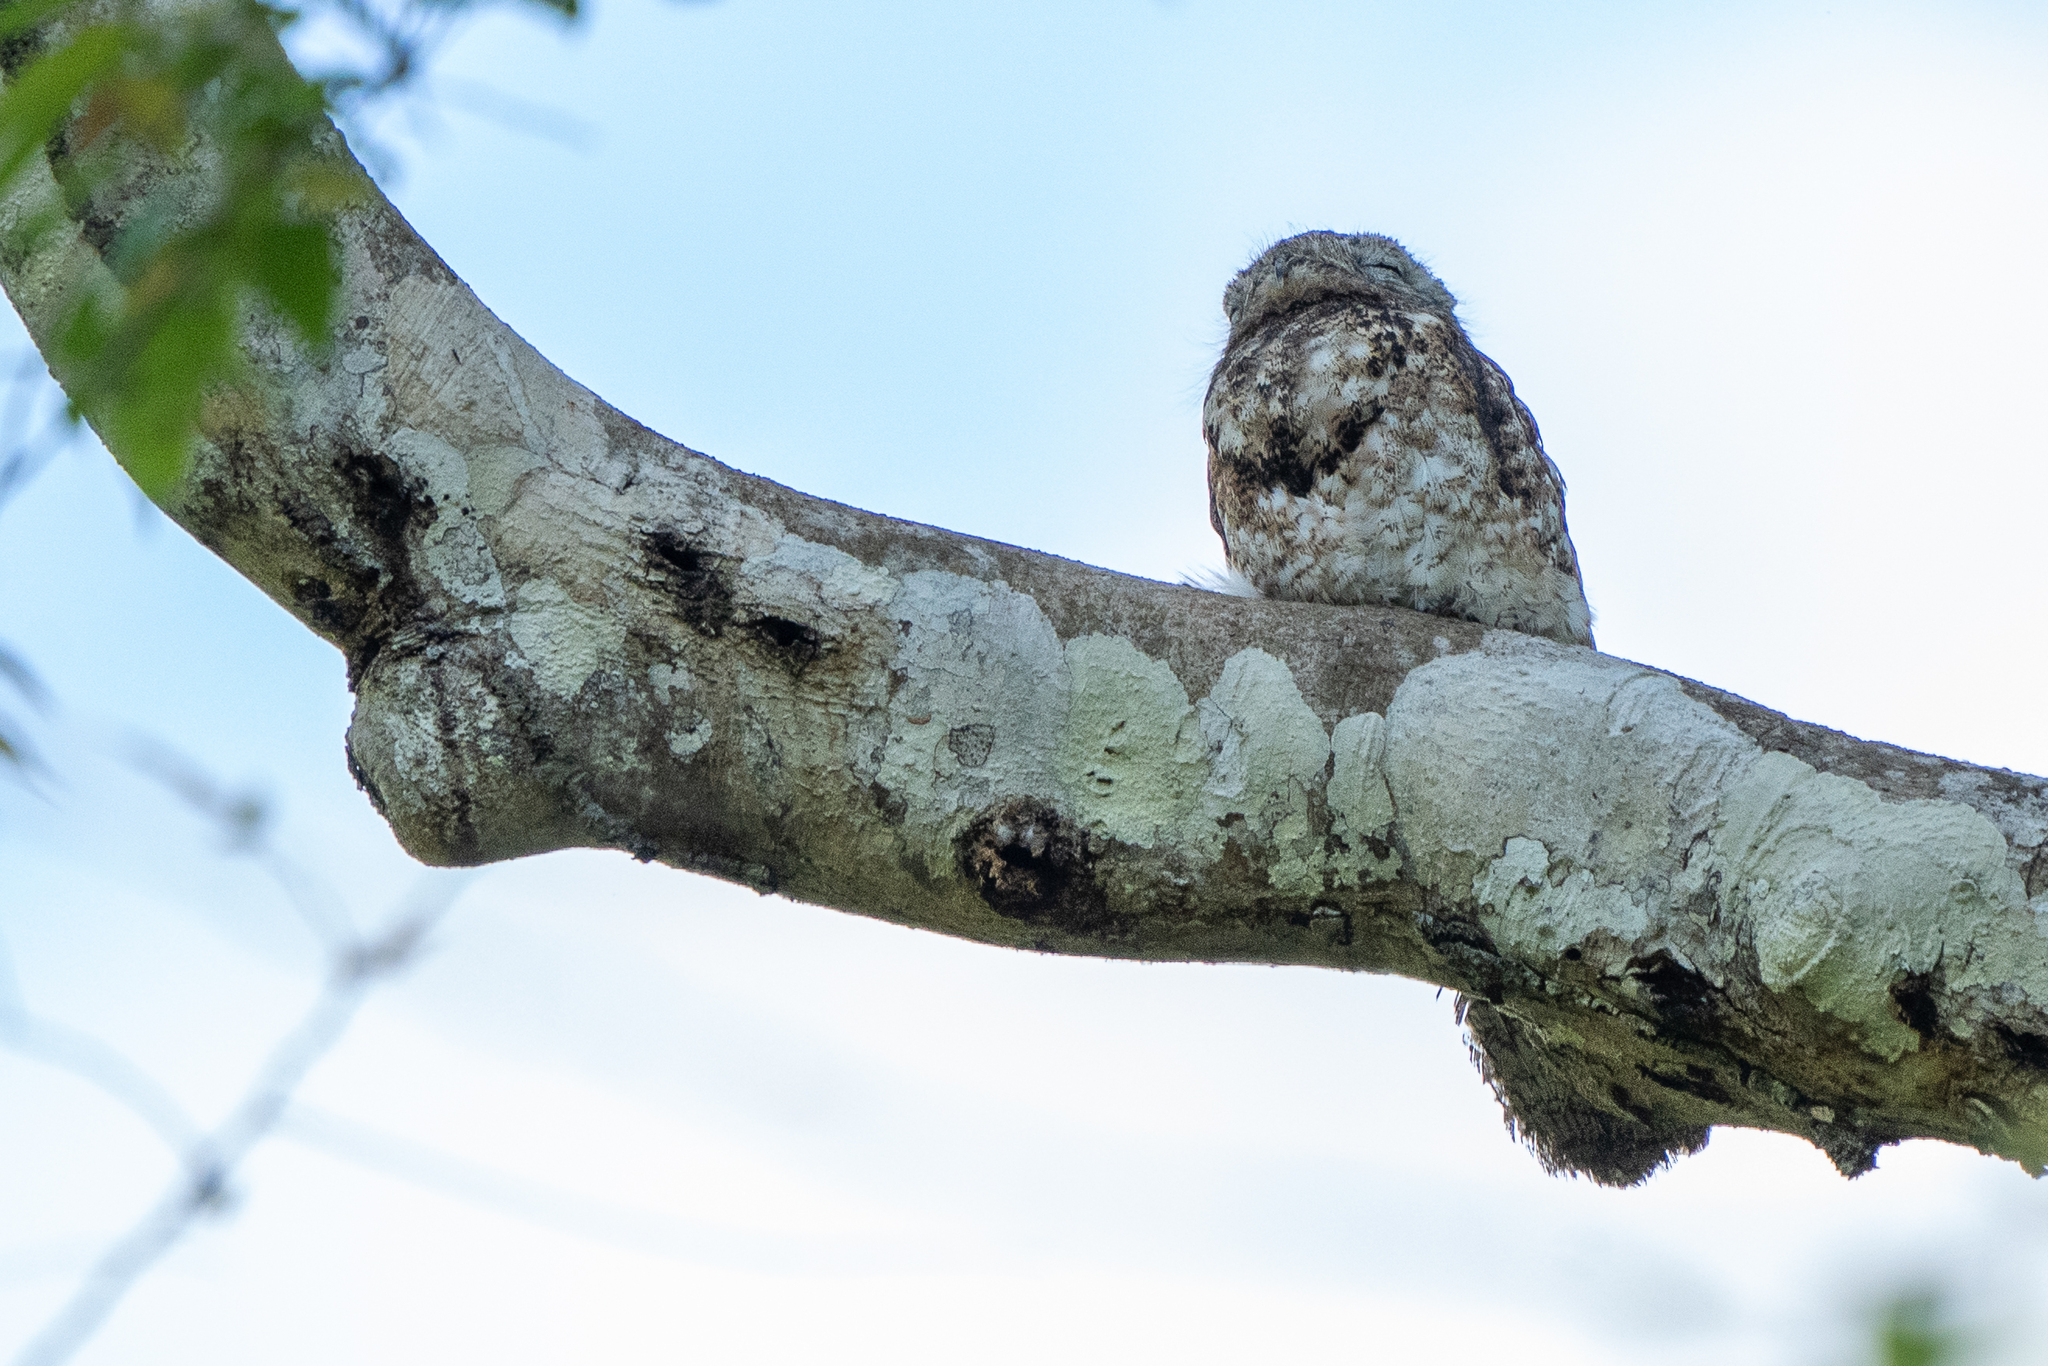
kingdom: Animalia
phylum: Chordata
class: Aves
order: Nyctibiiformes
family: Nyctibiidae
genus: Nyctibius
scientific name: Nyctibius grandis
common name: Great potoo
